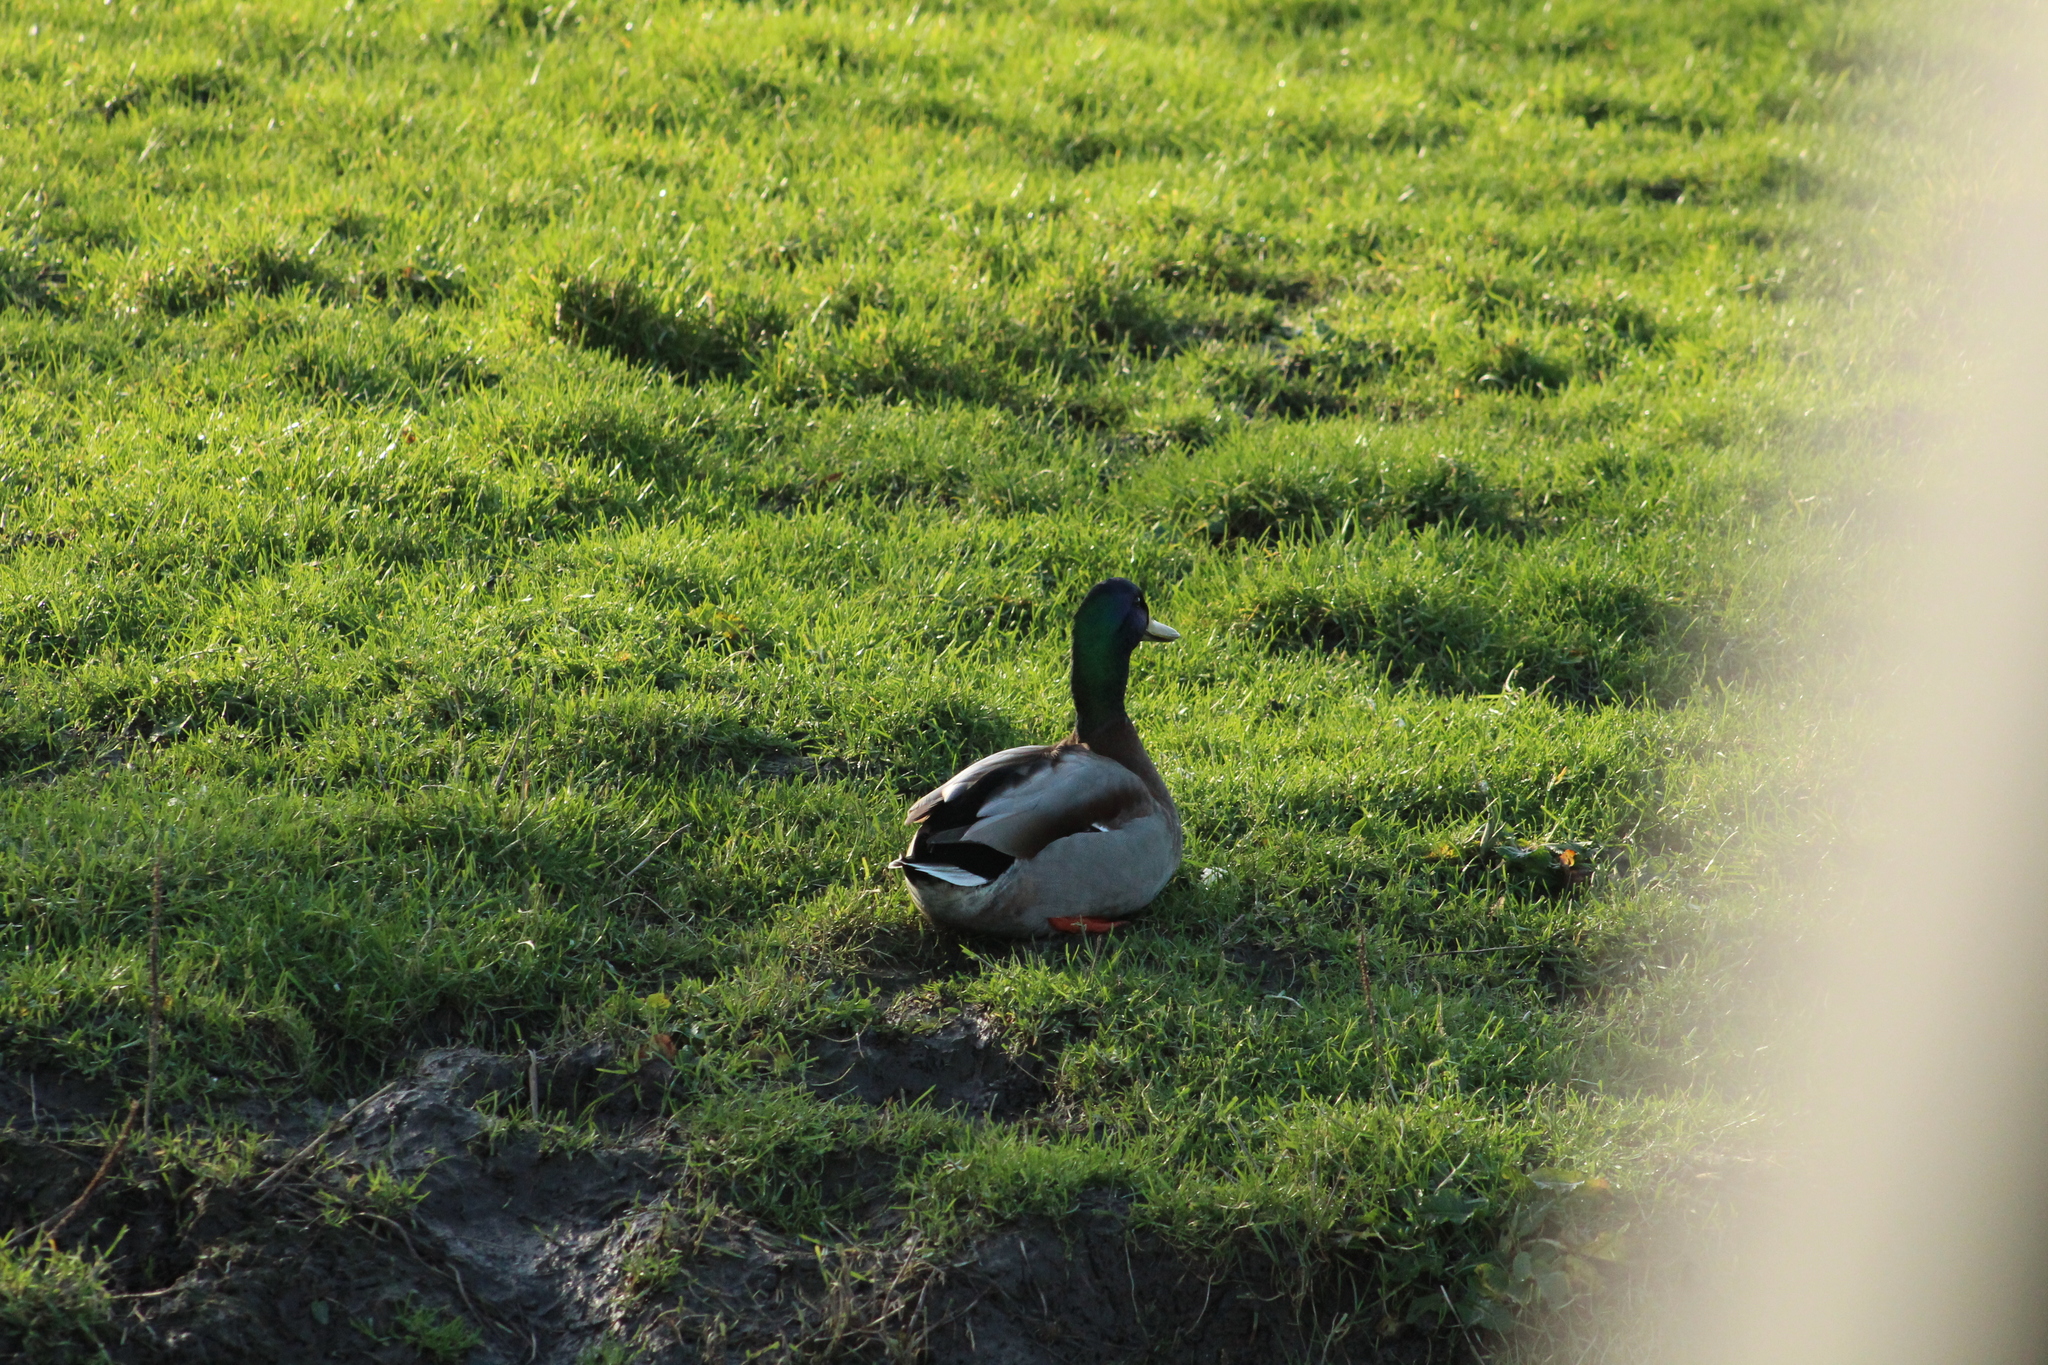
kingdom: Animalia
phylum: Chordata
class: Aves
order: Anseriformes
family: Anatidae
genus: Anas
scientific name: Anas platyrhynchos
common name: Mallard
